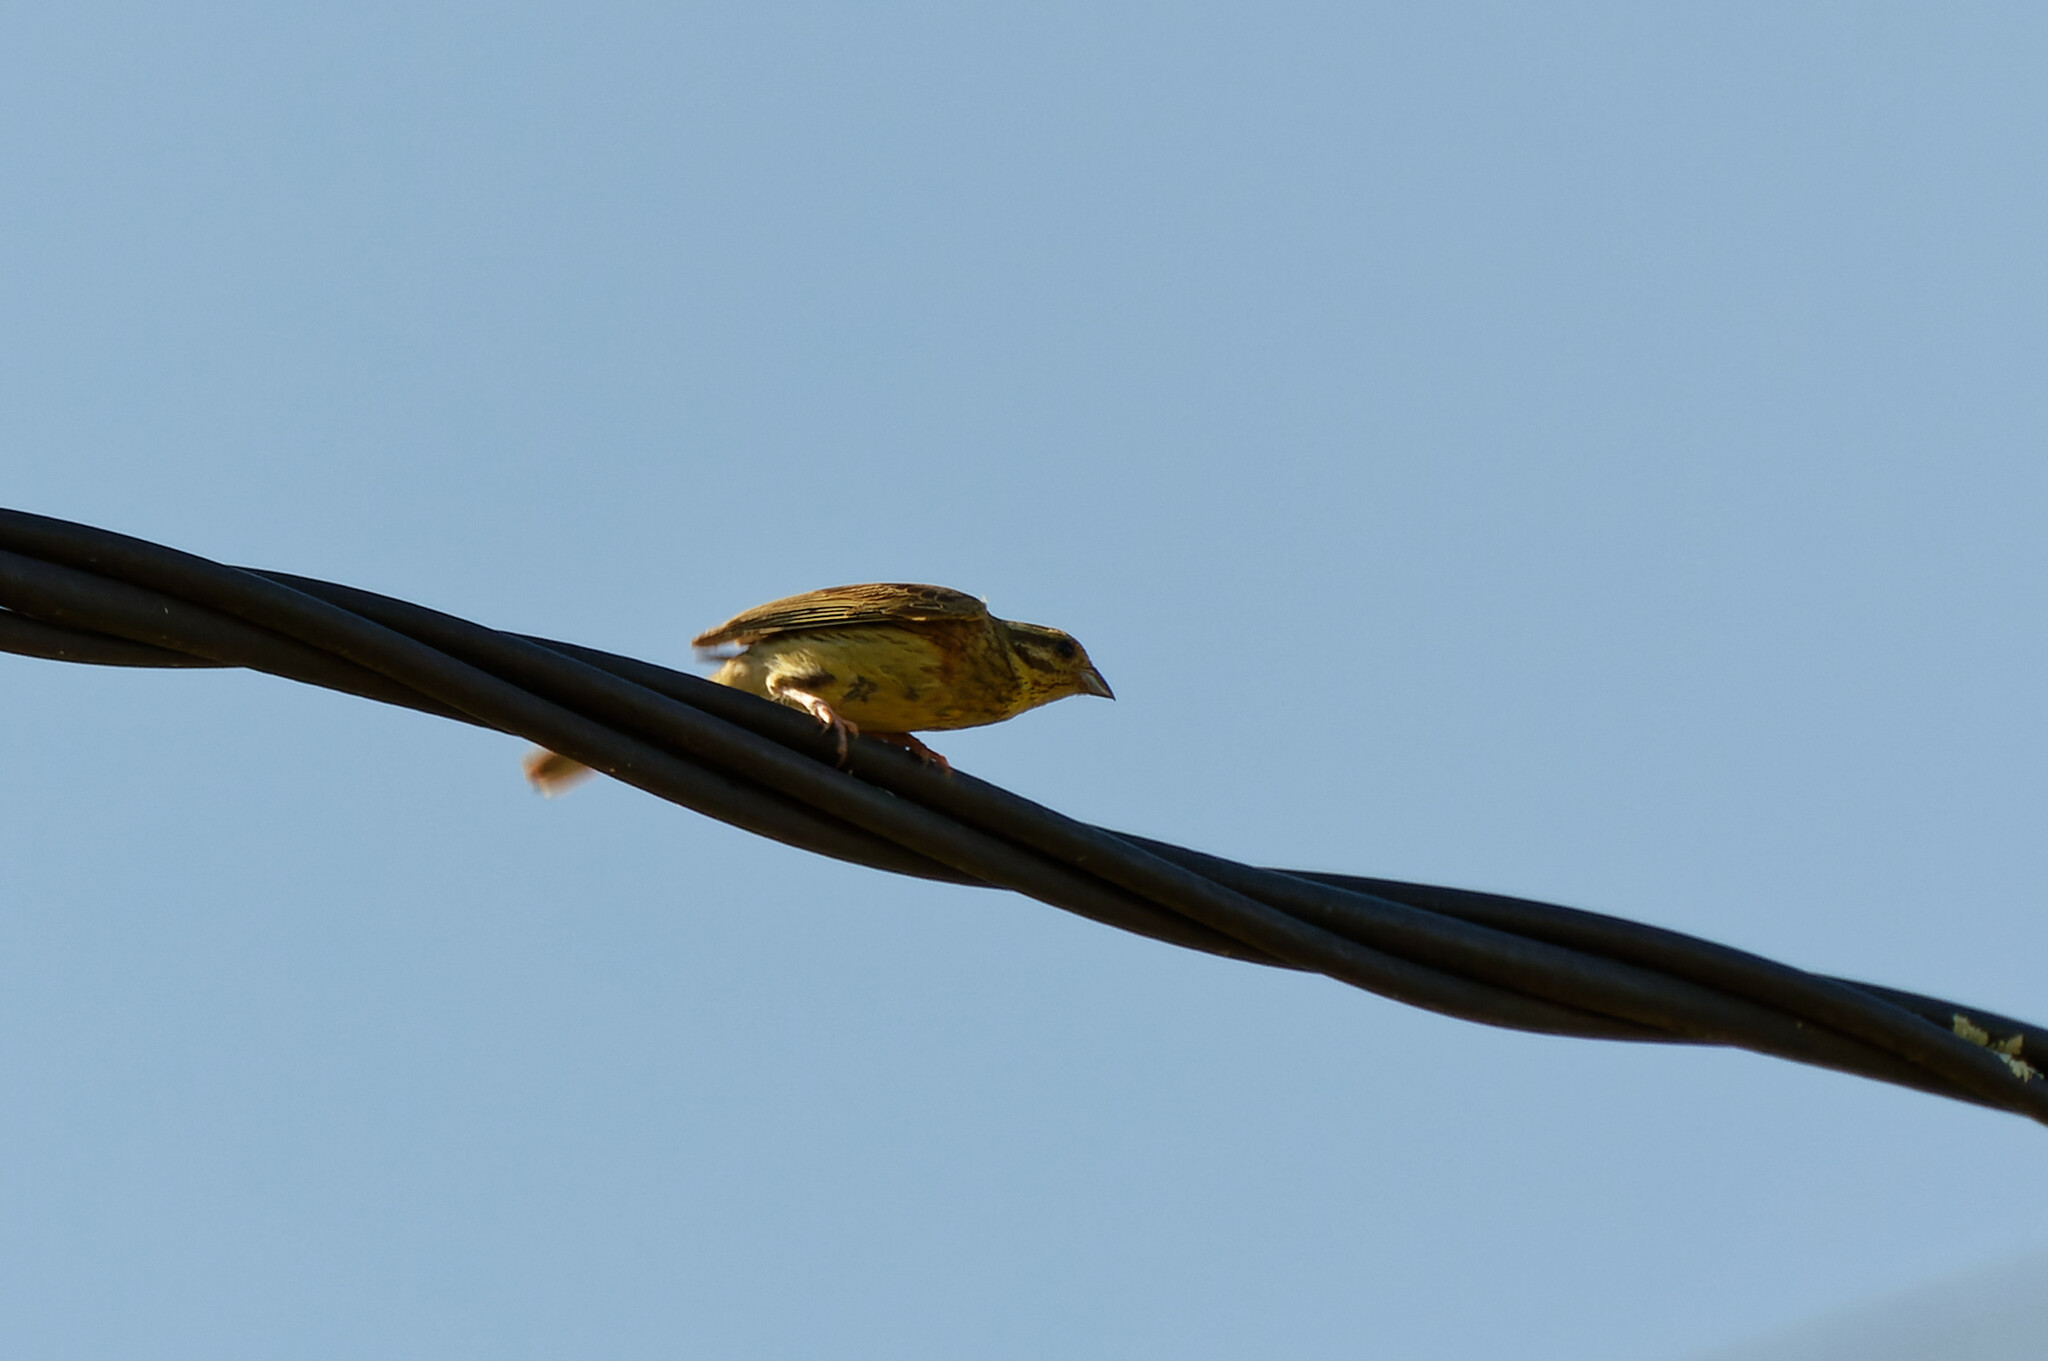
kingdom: Animalia
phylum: Chordata
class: Aves
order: Passeriformes
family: Emberizidae
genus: Emberiza
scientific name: Emberiza cirlus
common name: Cirl bunting
